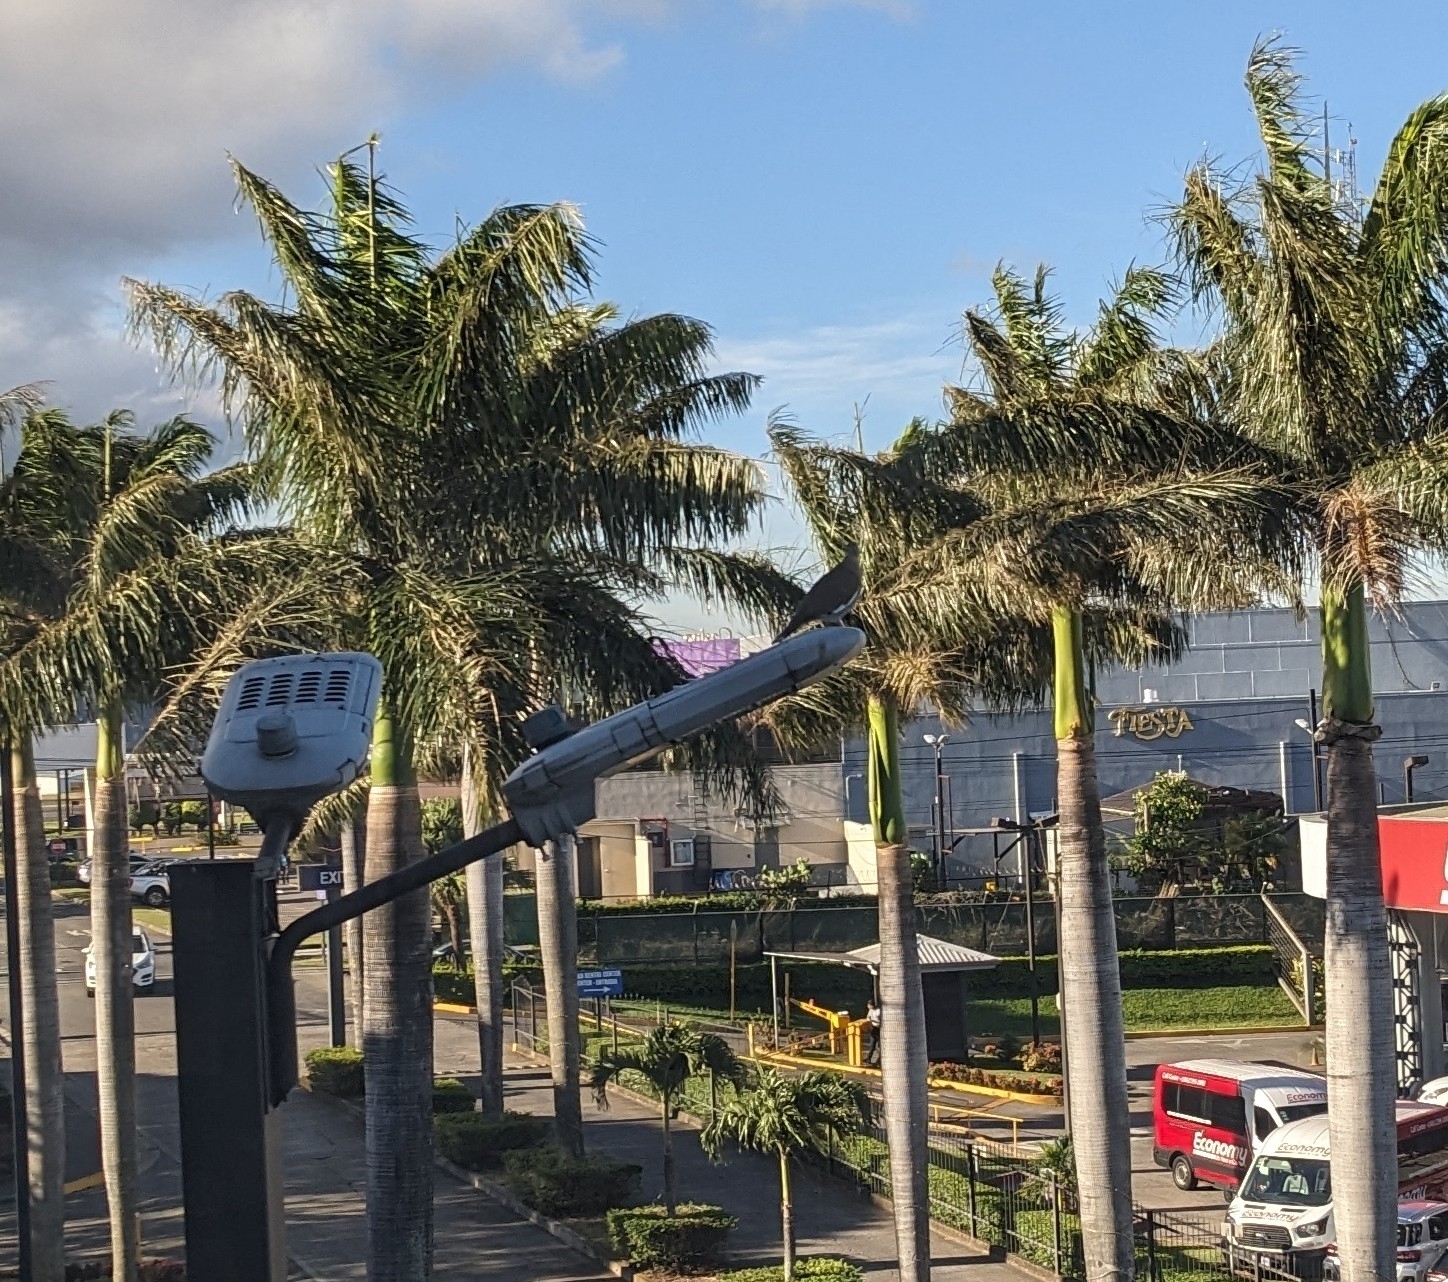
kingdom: Animalia
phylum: Chordata
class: Aves
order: Columbiformes
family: Columbidae
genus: Zenaida
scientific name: Zenaida asiatica
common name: White-winged dove
